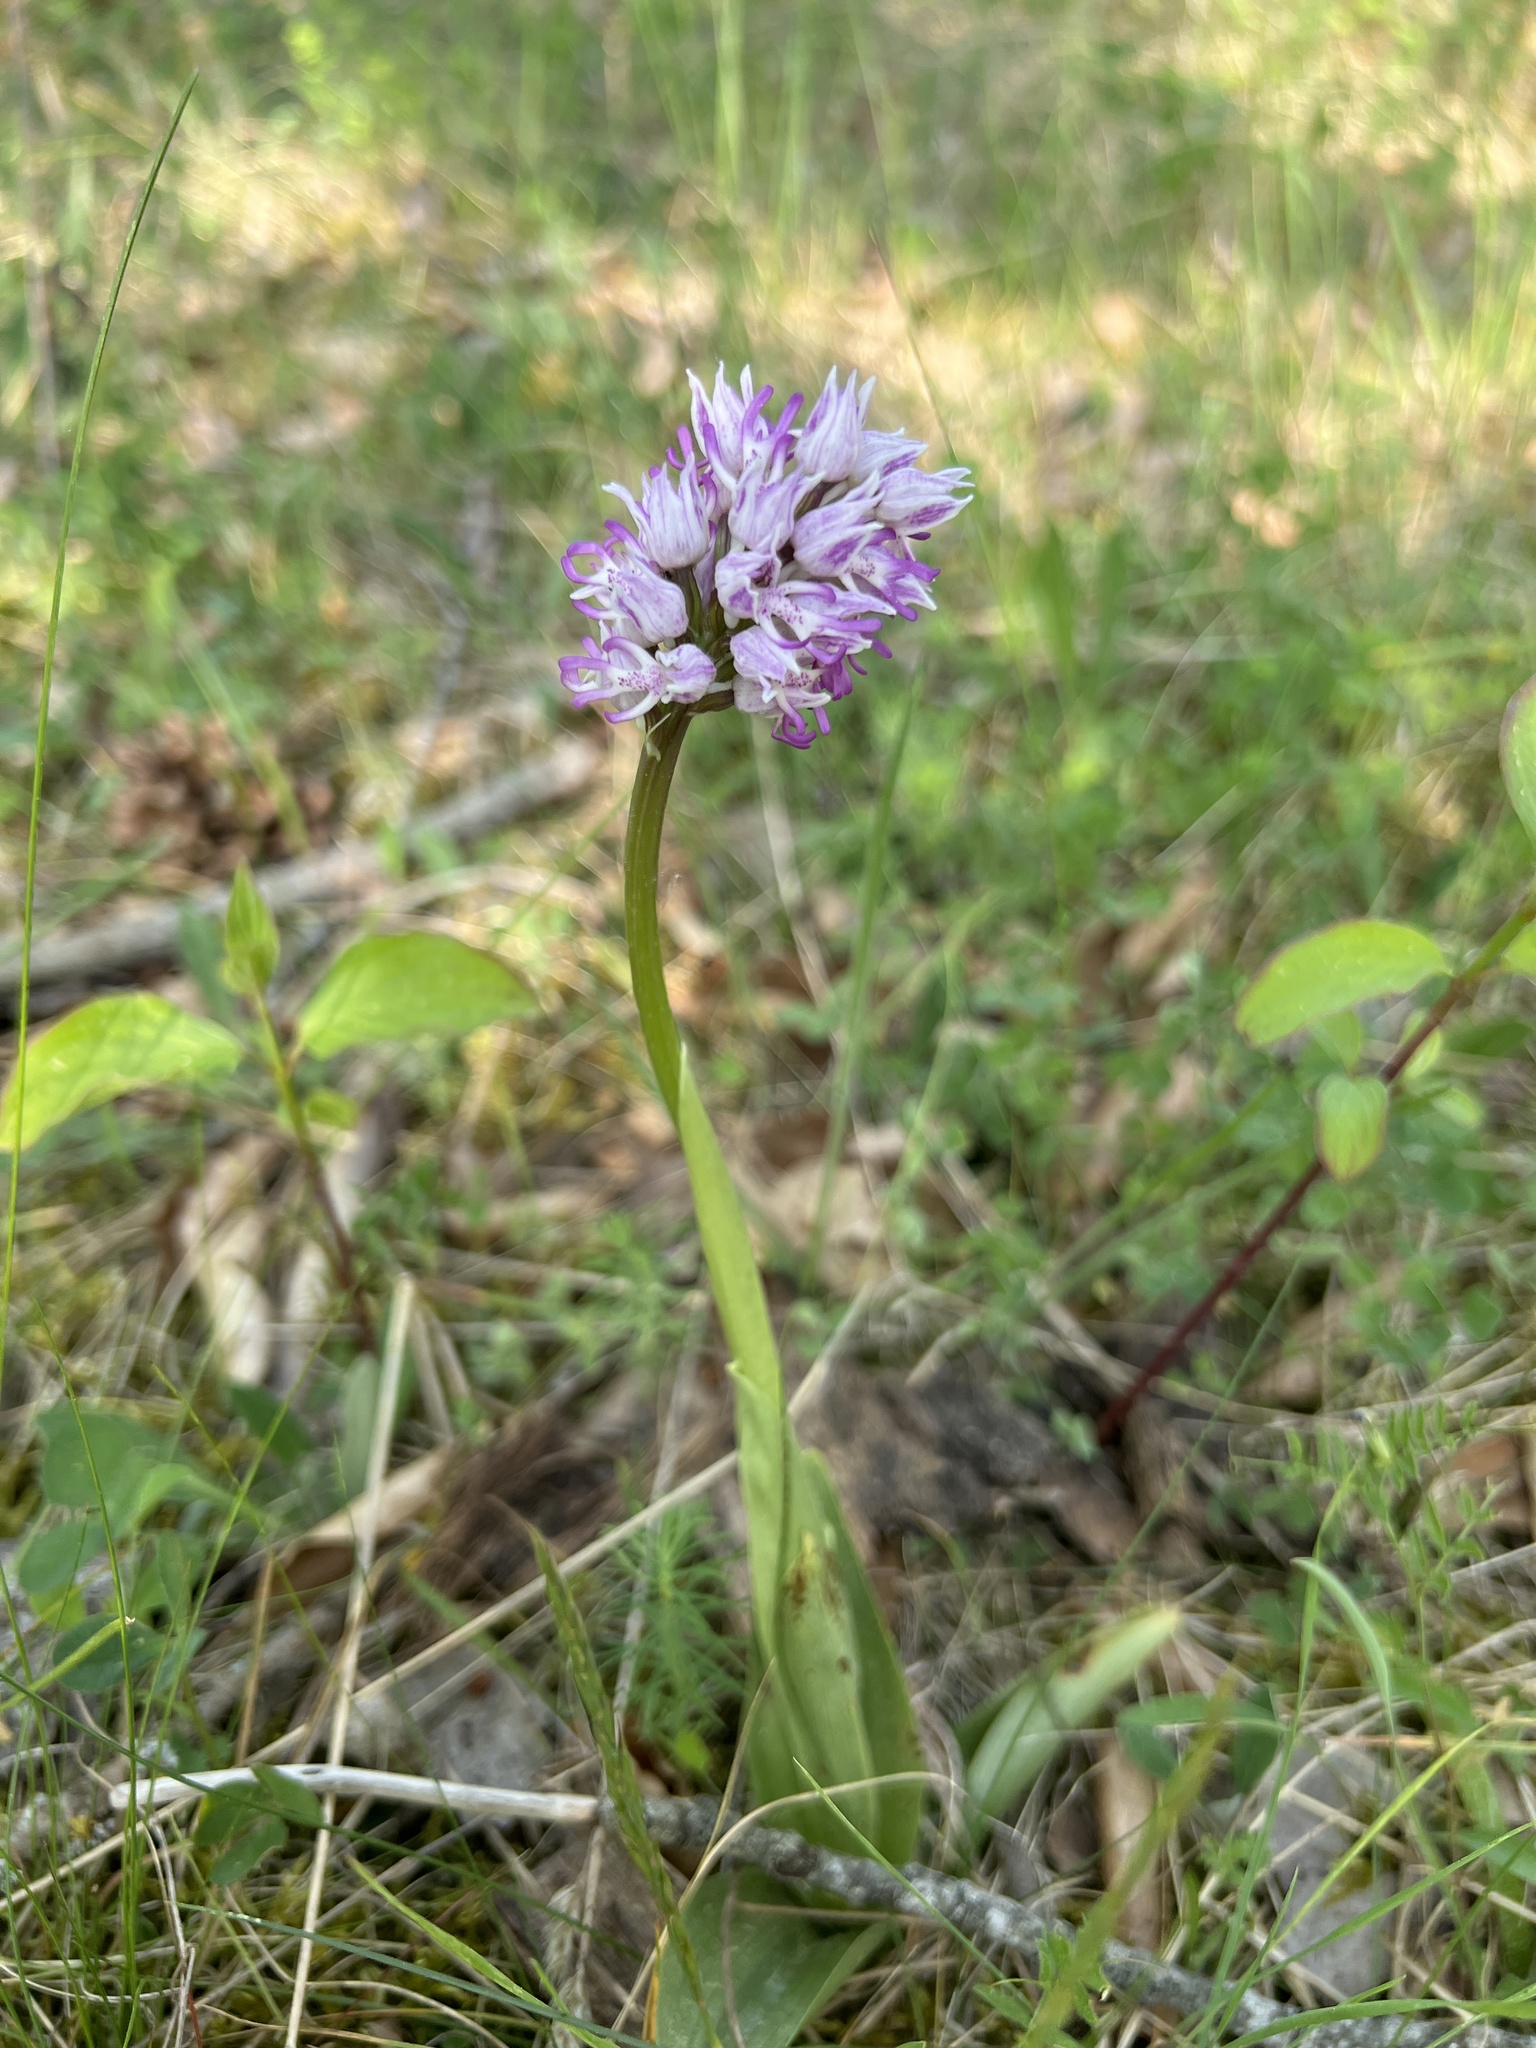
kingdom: Plantae
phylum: Tracheophyta
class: Liliopsida
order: Asparagales
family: Orchidaceae
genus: Orchis
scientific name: Orchis simia
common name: Monkey orchid
